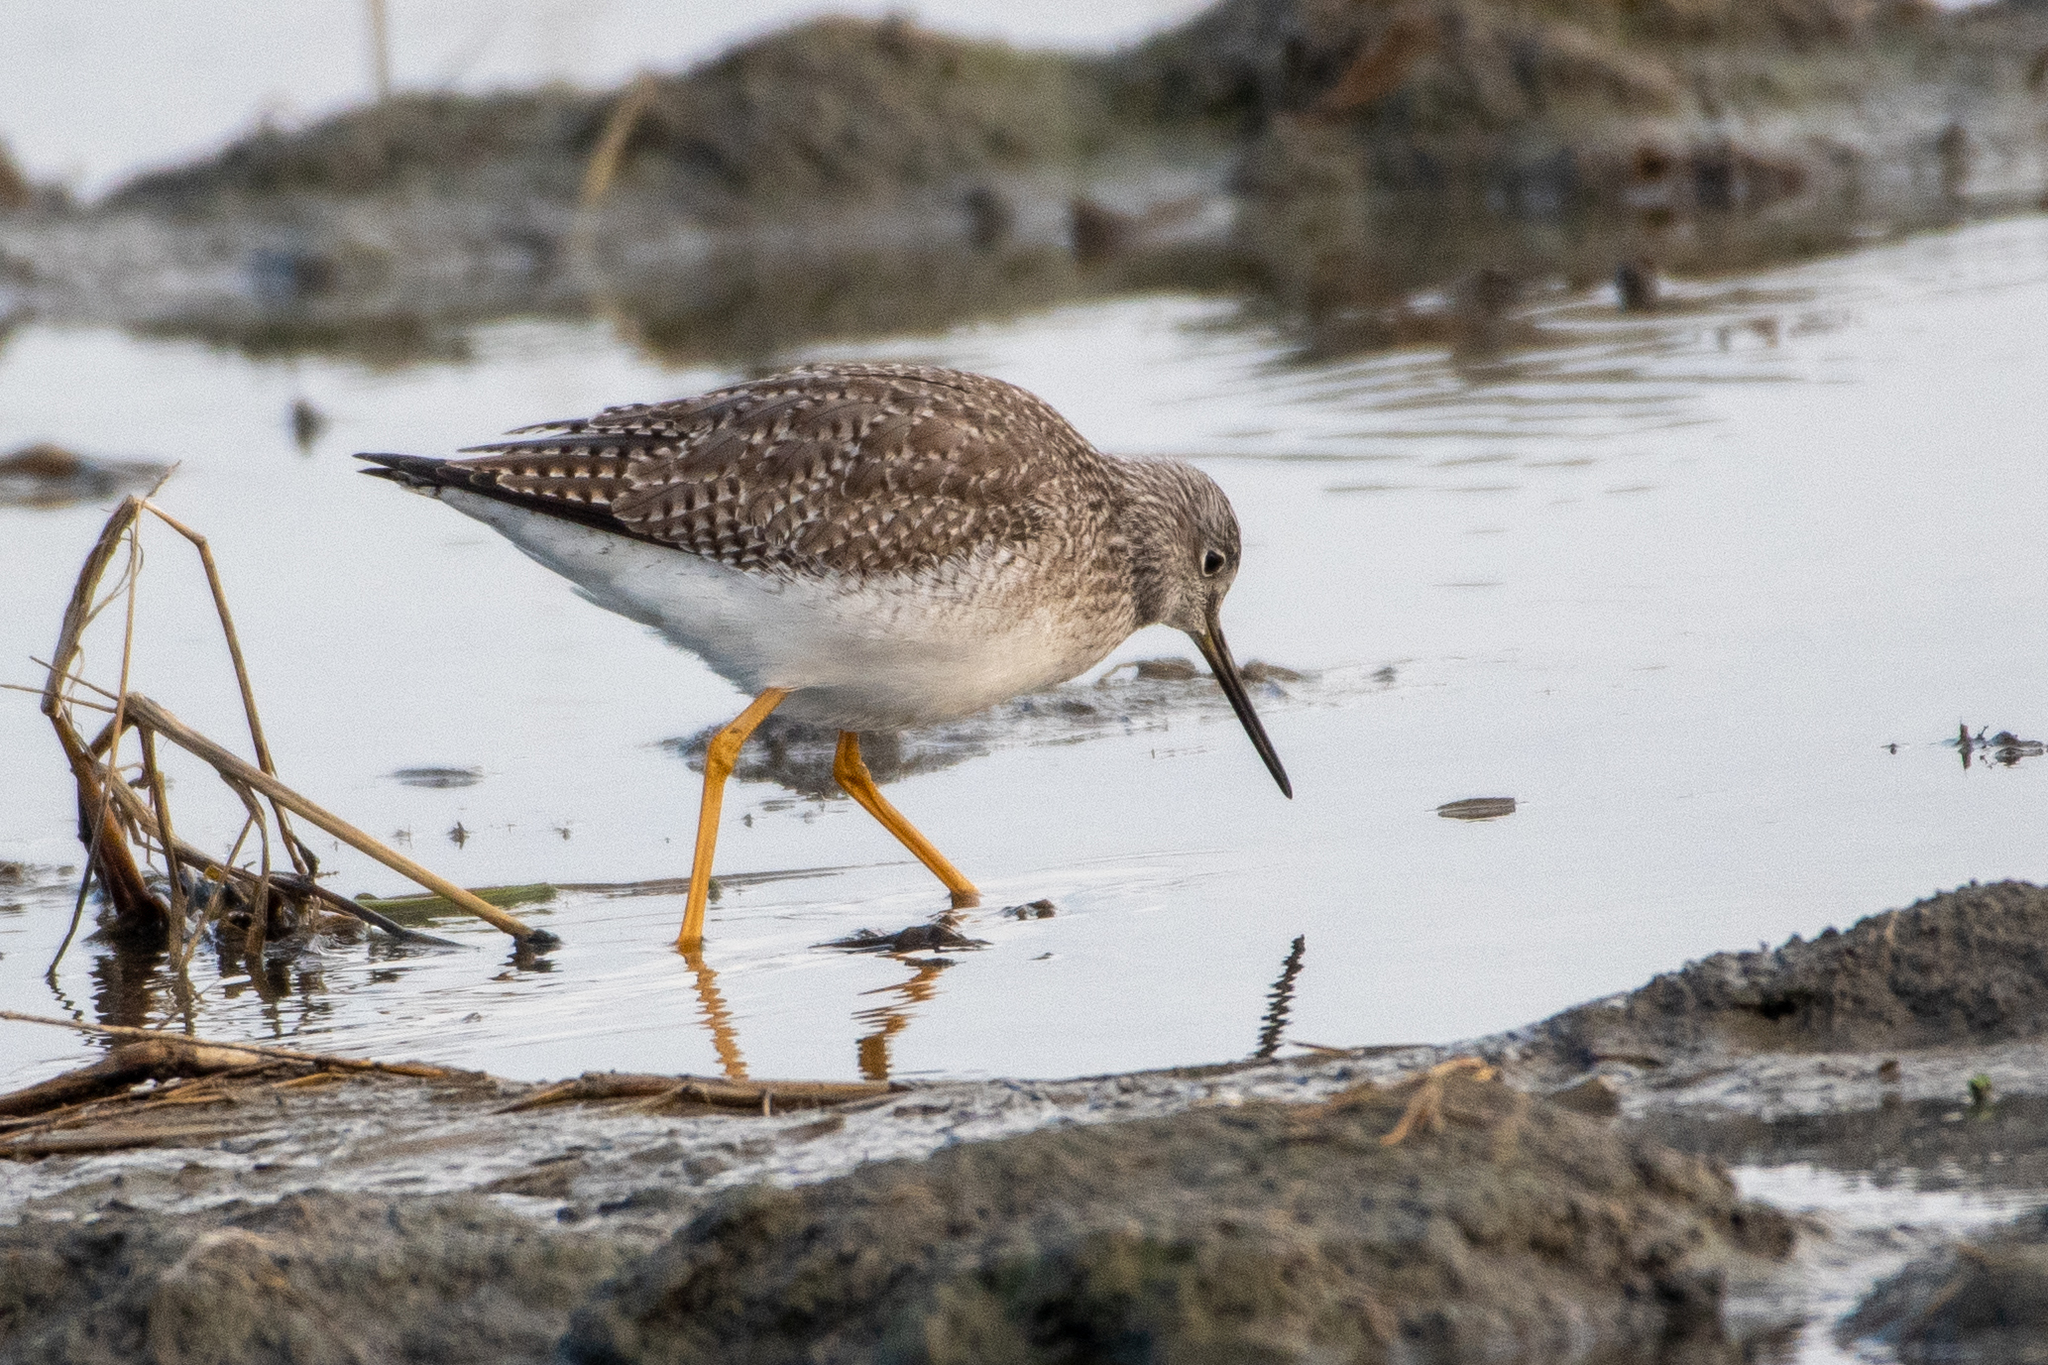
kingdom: Animalia
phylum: Chordata
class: Aves
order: Charadriiformes
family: Scolopacidae
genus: Tringa
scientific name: Tringa melanoleuca
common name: Greater yellowlegs
